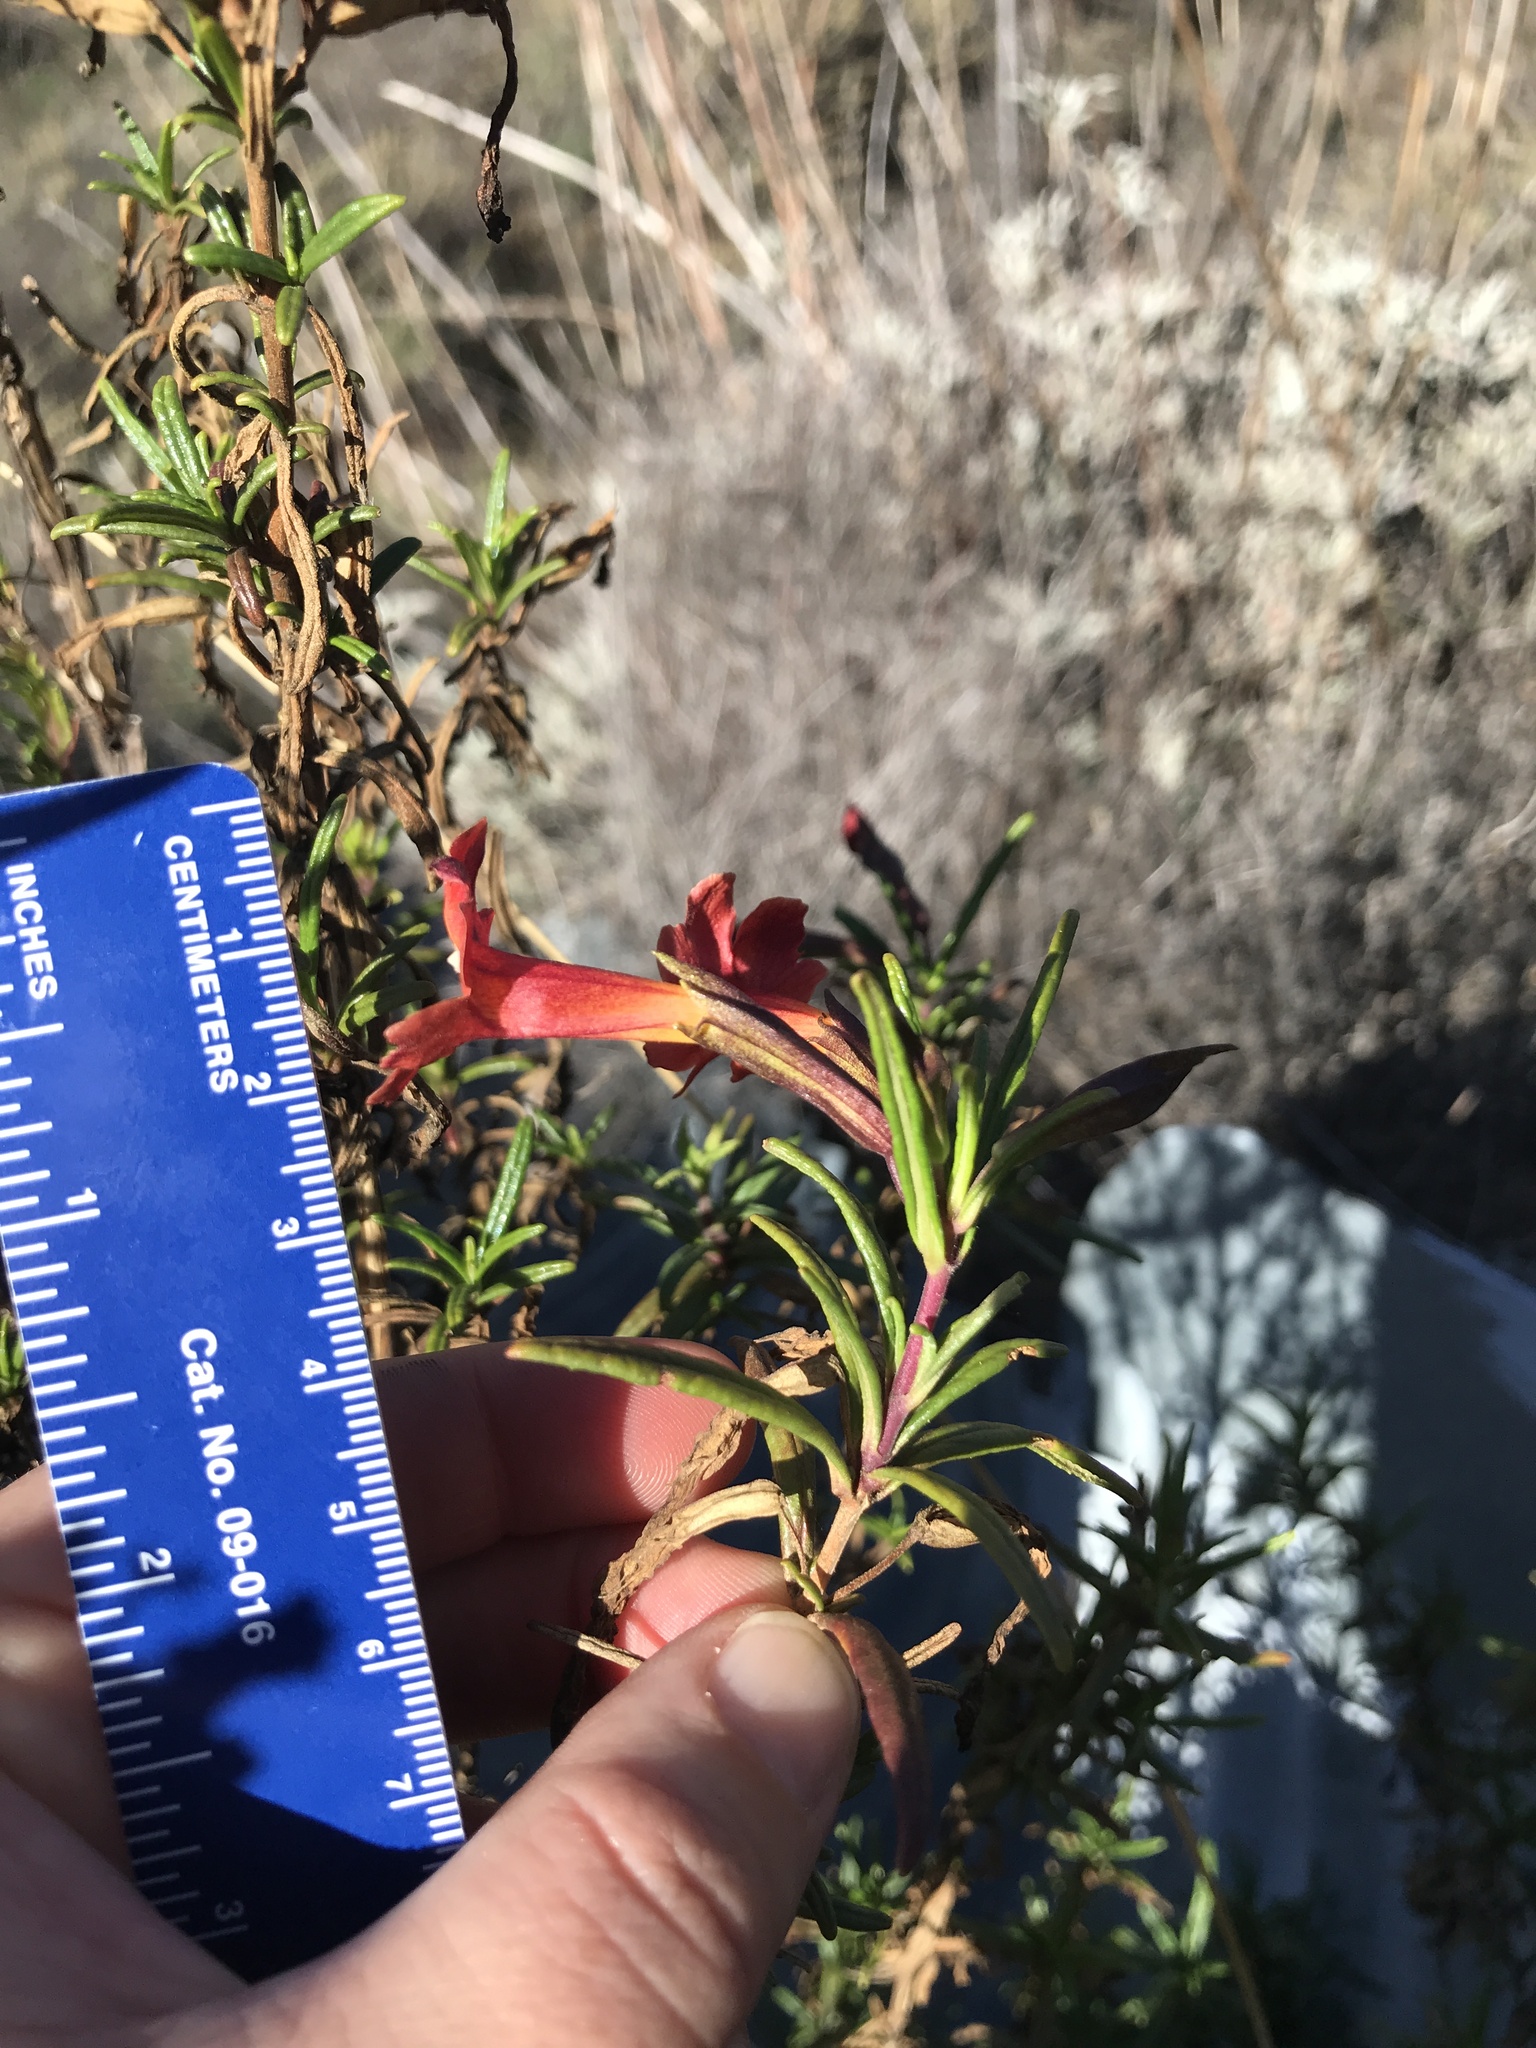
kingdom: Plantae
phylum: Tracheophyta
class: Magnoliopsida
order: Lamiales
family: Phrymaceae
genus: Diplacus
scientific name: Diplacus puniceus
